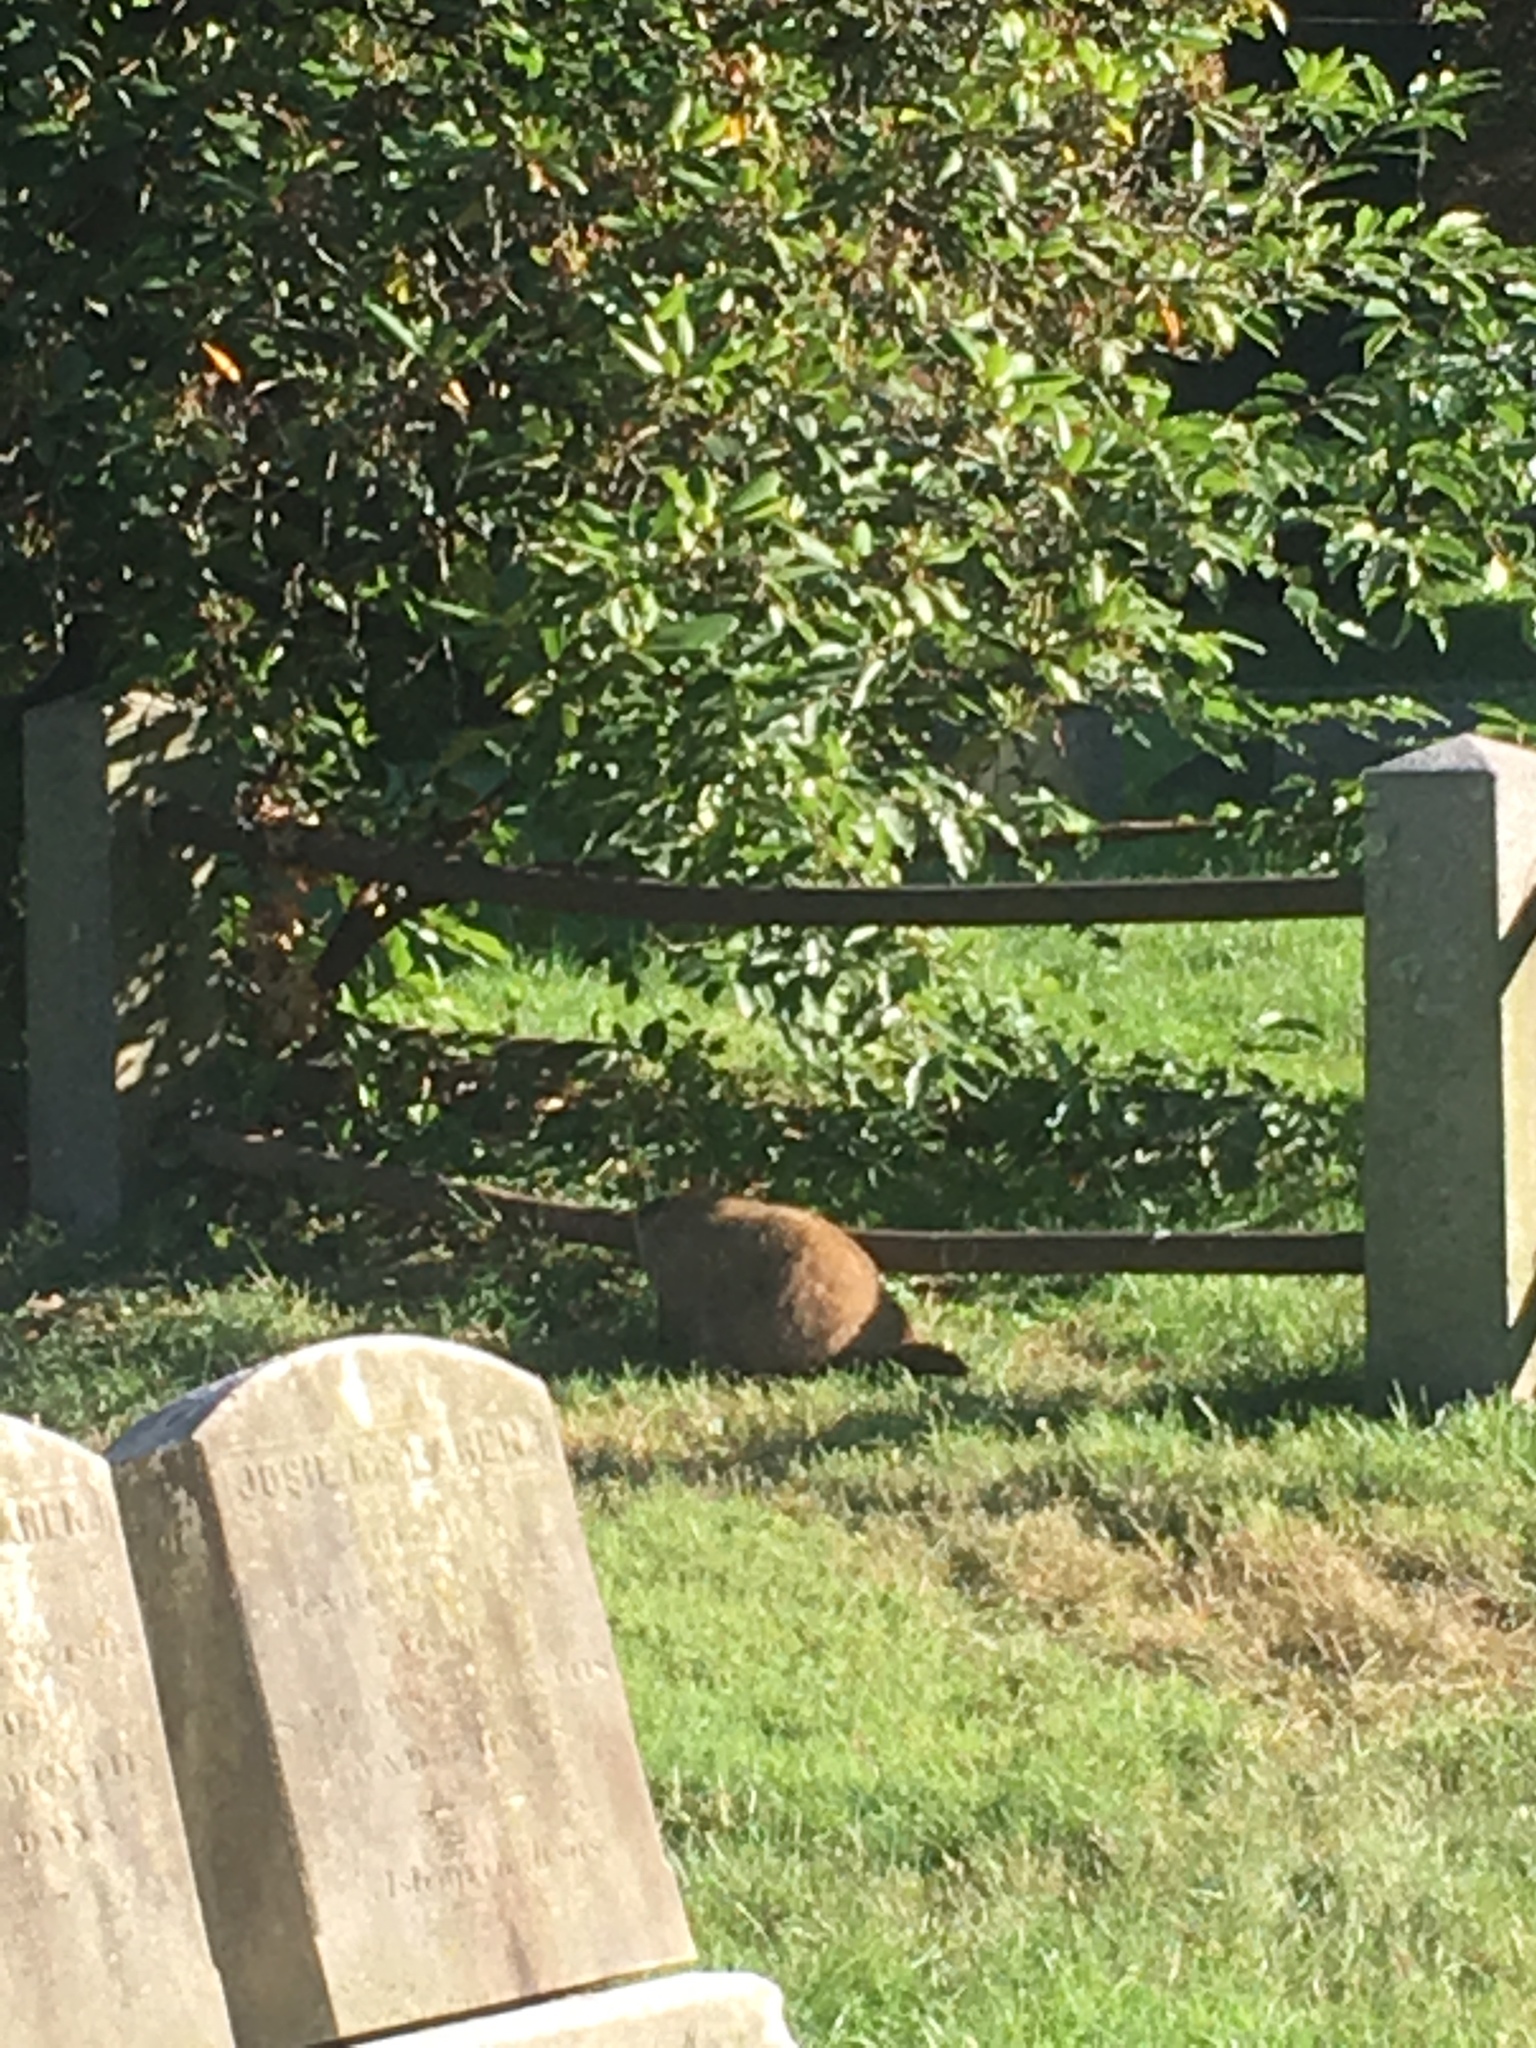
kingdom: Animalia
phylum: Chordata
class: Mammalia
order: Rodentia
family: Sciuridae
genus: Marmota
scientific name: Marmota monax
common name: Groundhog
